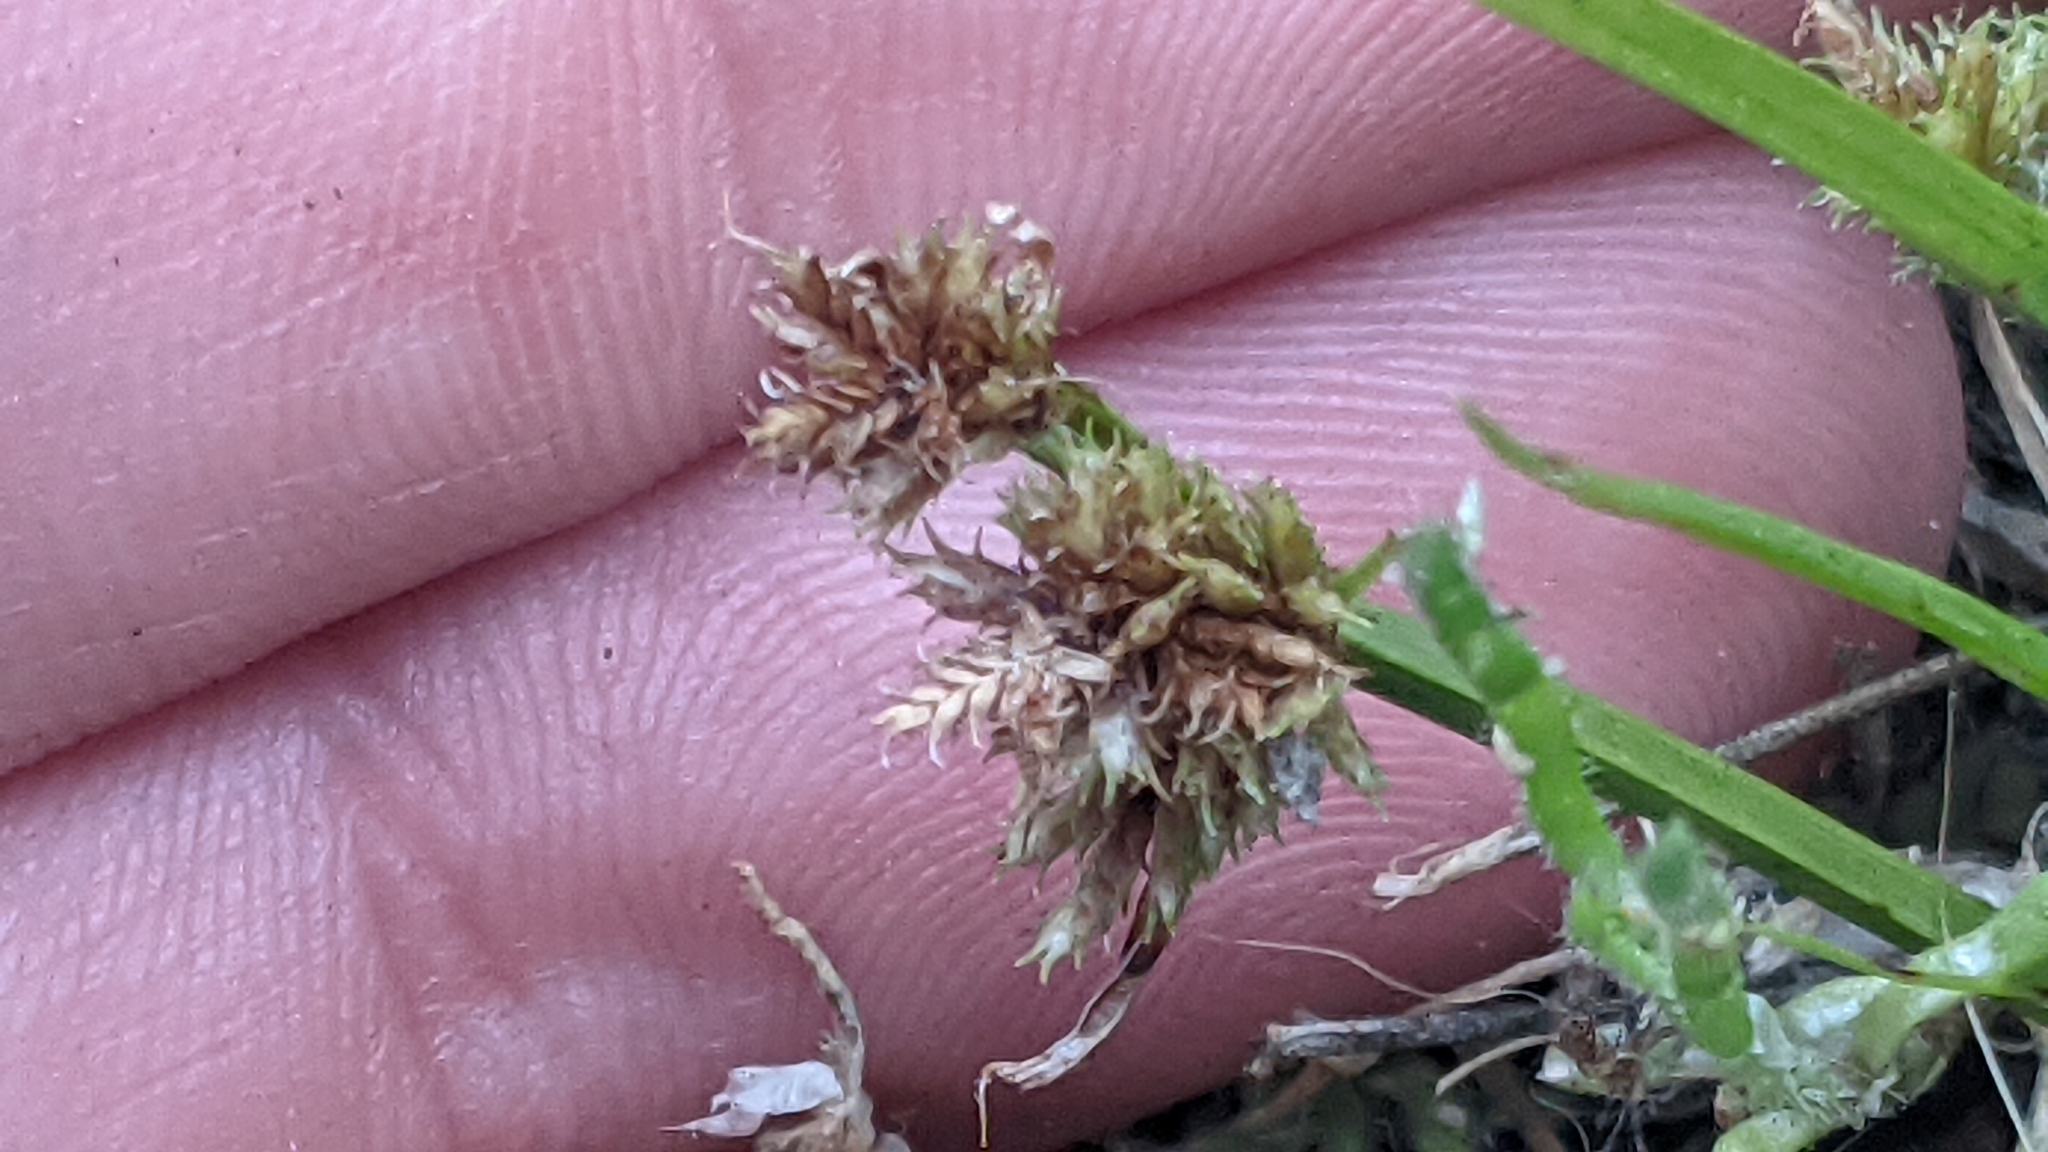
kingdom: Plantae
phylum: Tracheophyta
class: Liliopsida
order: Poales
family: Cyperaceae
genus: Cyperus
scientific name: Cyperus squarrosus
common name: Awned cyperus
